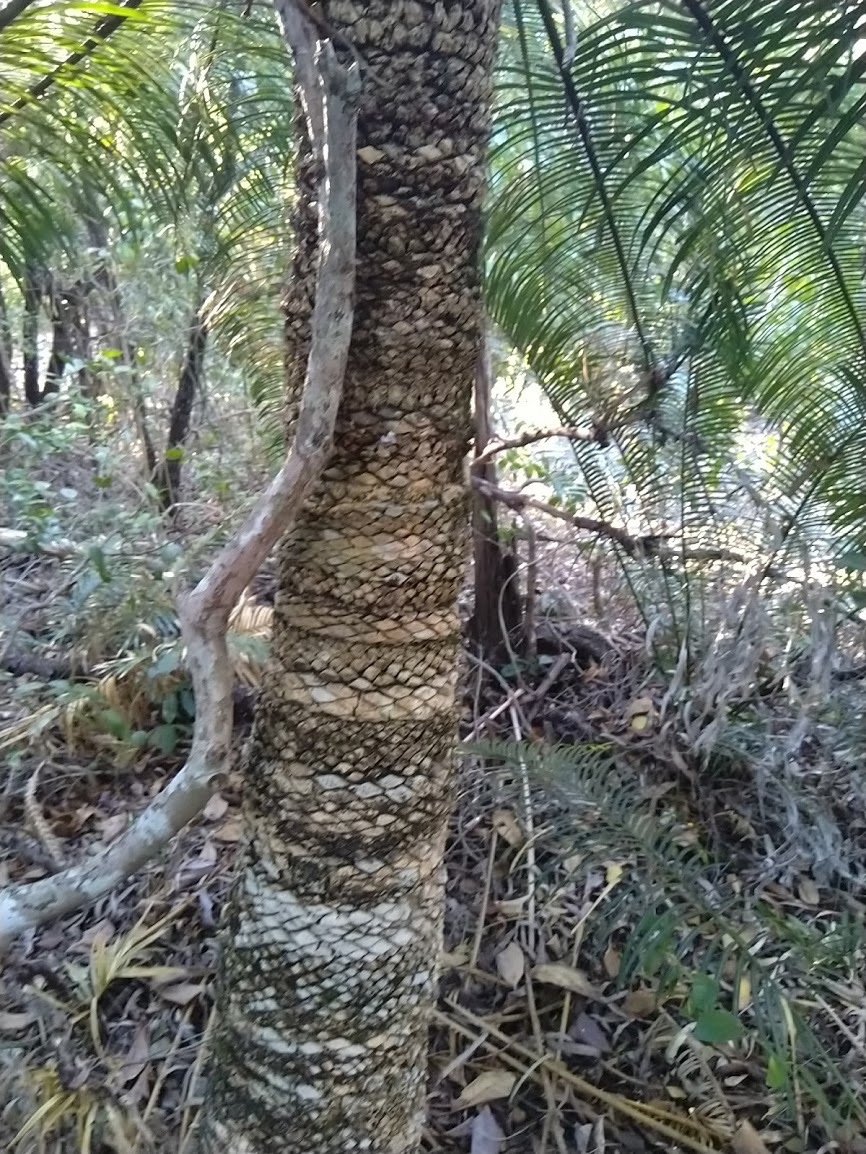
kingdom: Plantae
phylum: Tracheophyta
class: Cycadopsida
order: Cycadales
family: Cycadaceae
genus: Cycas
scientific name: Cycas media
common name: Queensland cycas
